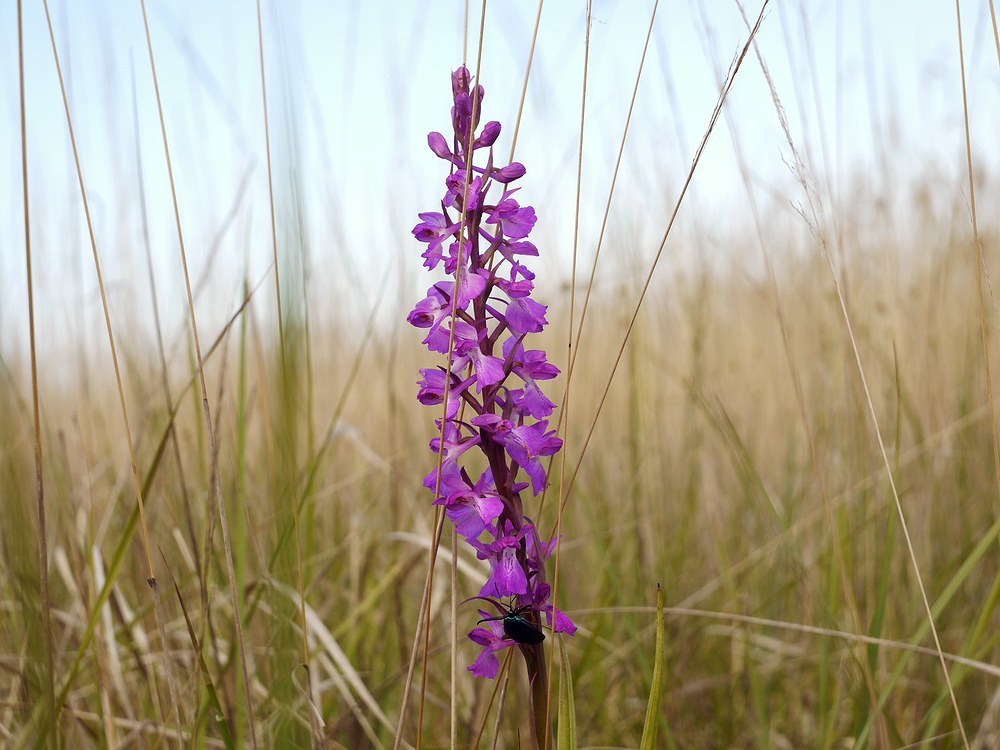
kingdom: Plantae
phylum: Tracheophyta
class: Liliopsida
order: Asparagales
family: Orchidaceae
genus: Anacamptis
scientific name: Anacamptis palustris
